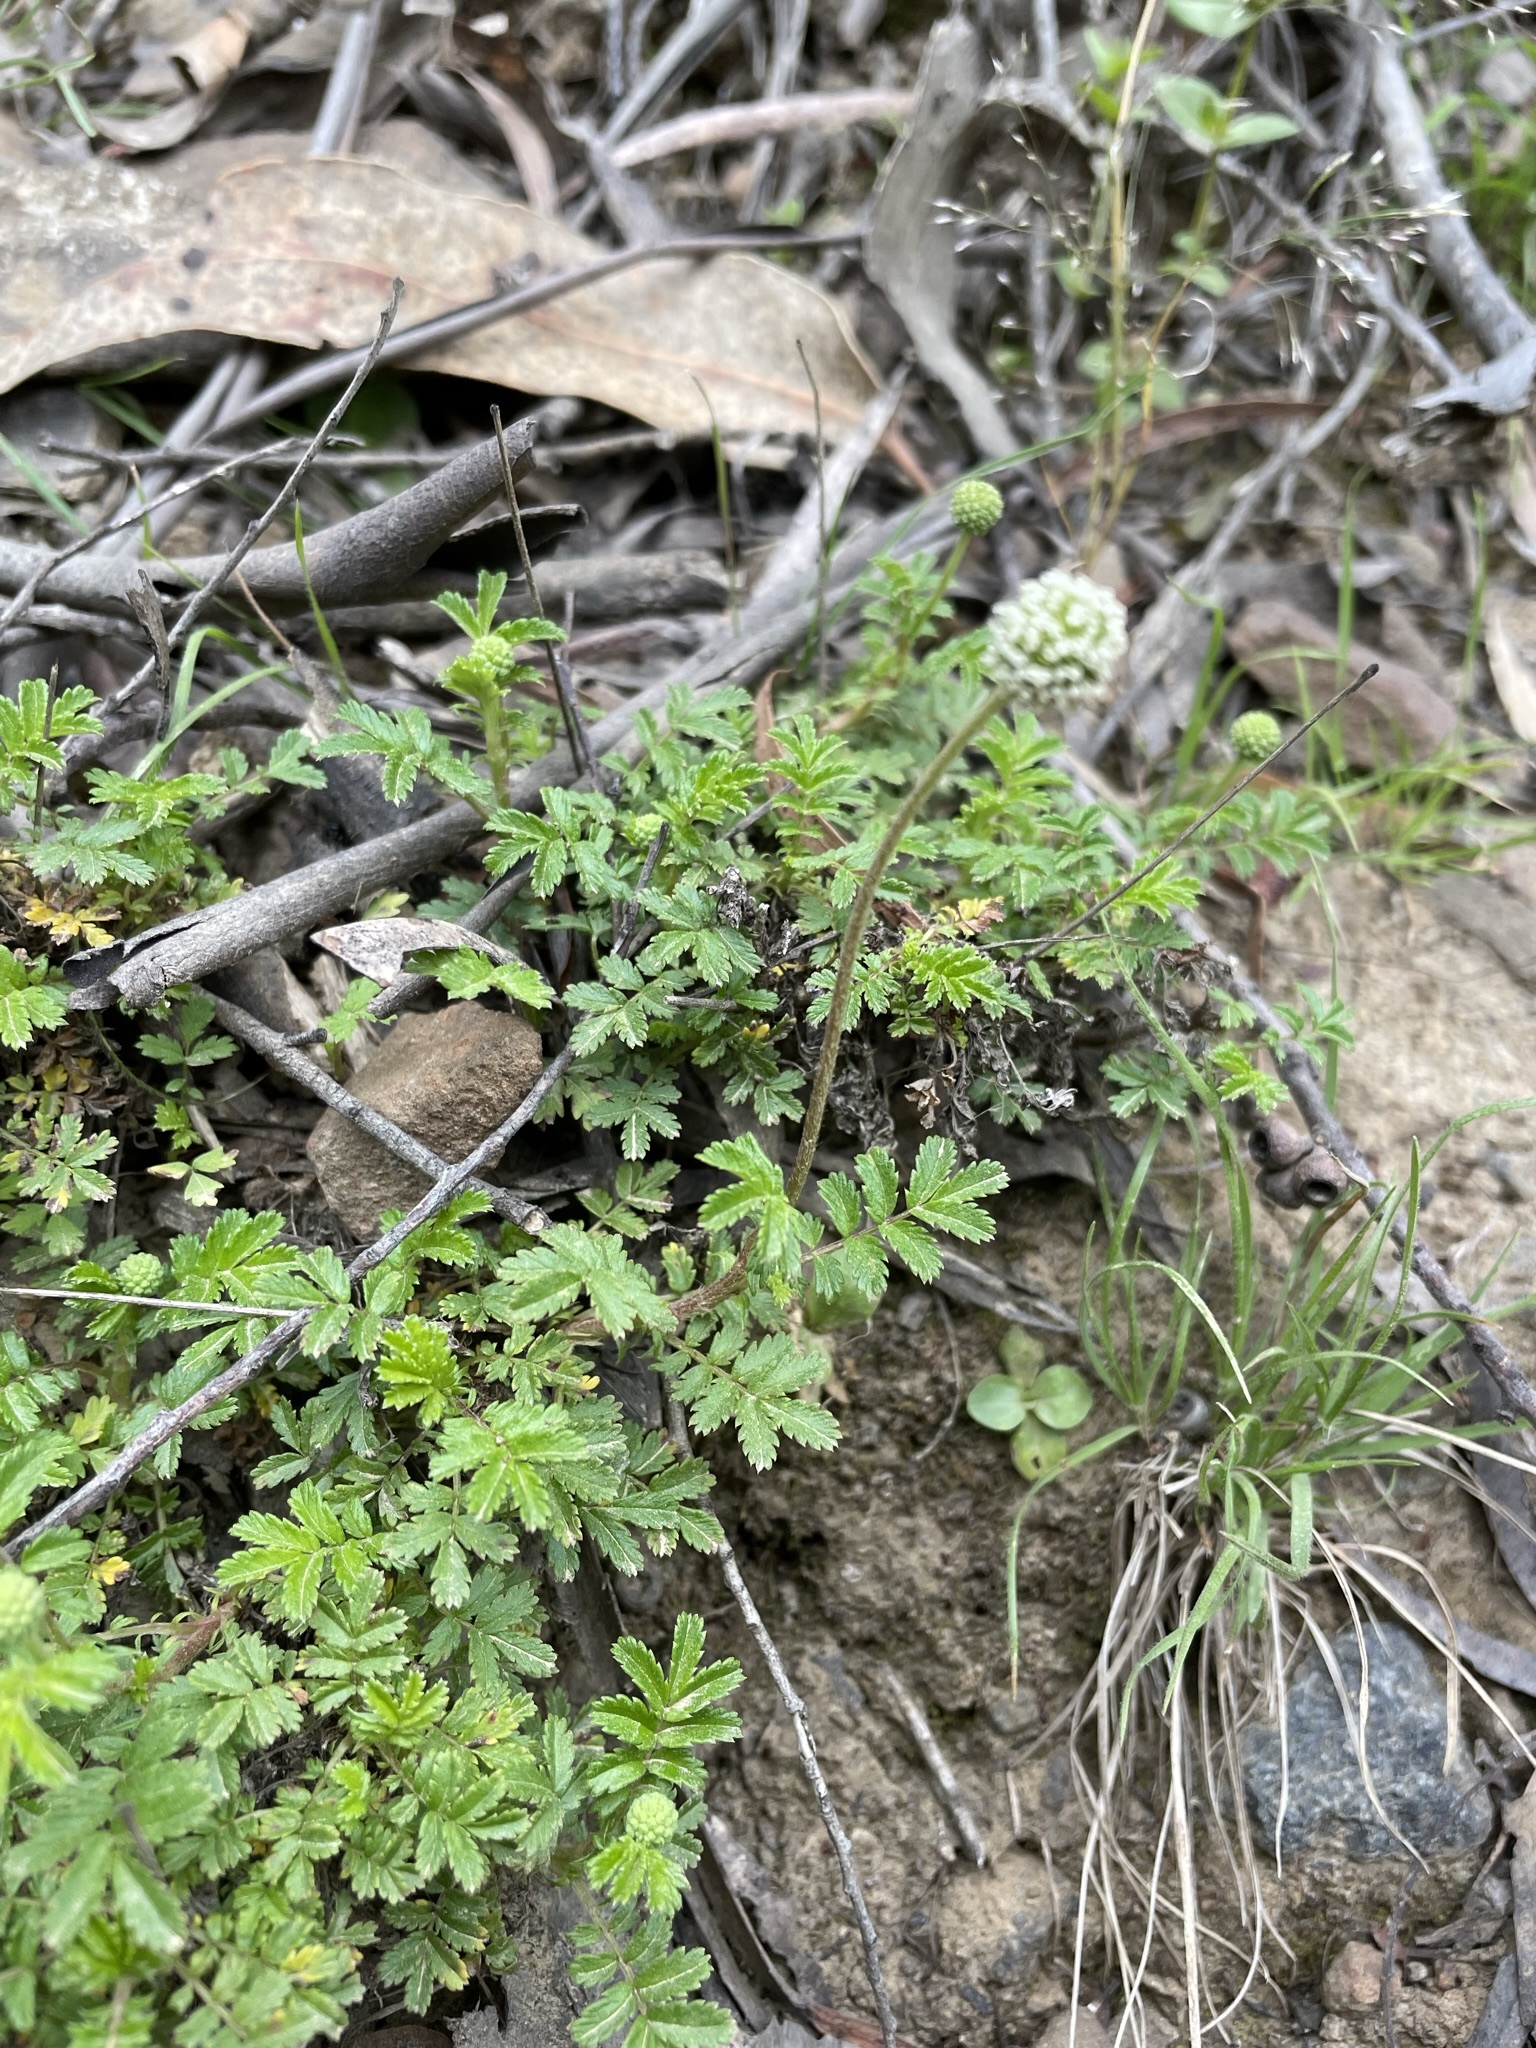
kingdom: Plantae
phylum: Tracheophyta
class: Magnoliopsida
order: Rosales
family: Rosaceae
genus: Acaena
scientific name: Acaena novae-zelandiae
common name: Pirri-pirri-bur
